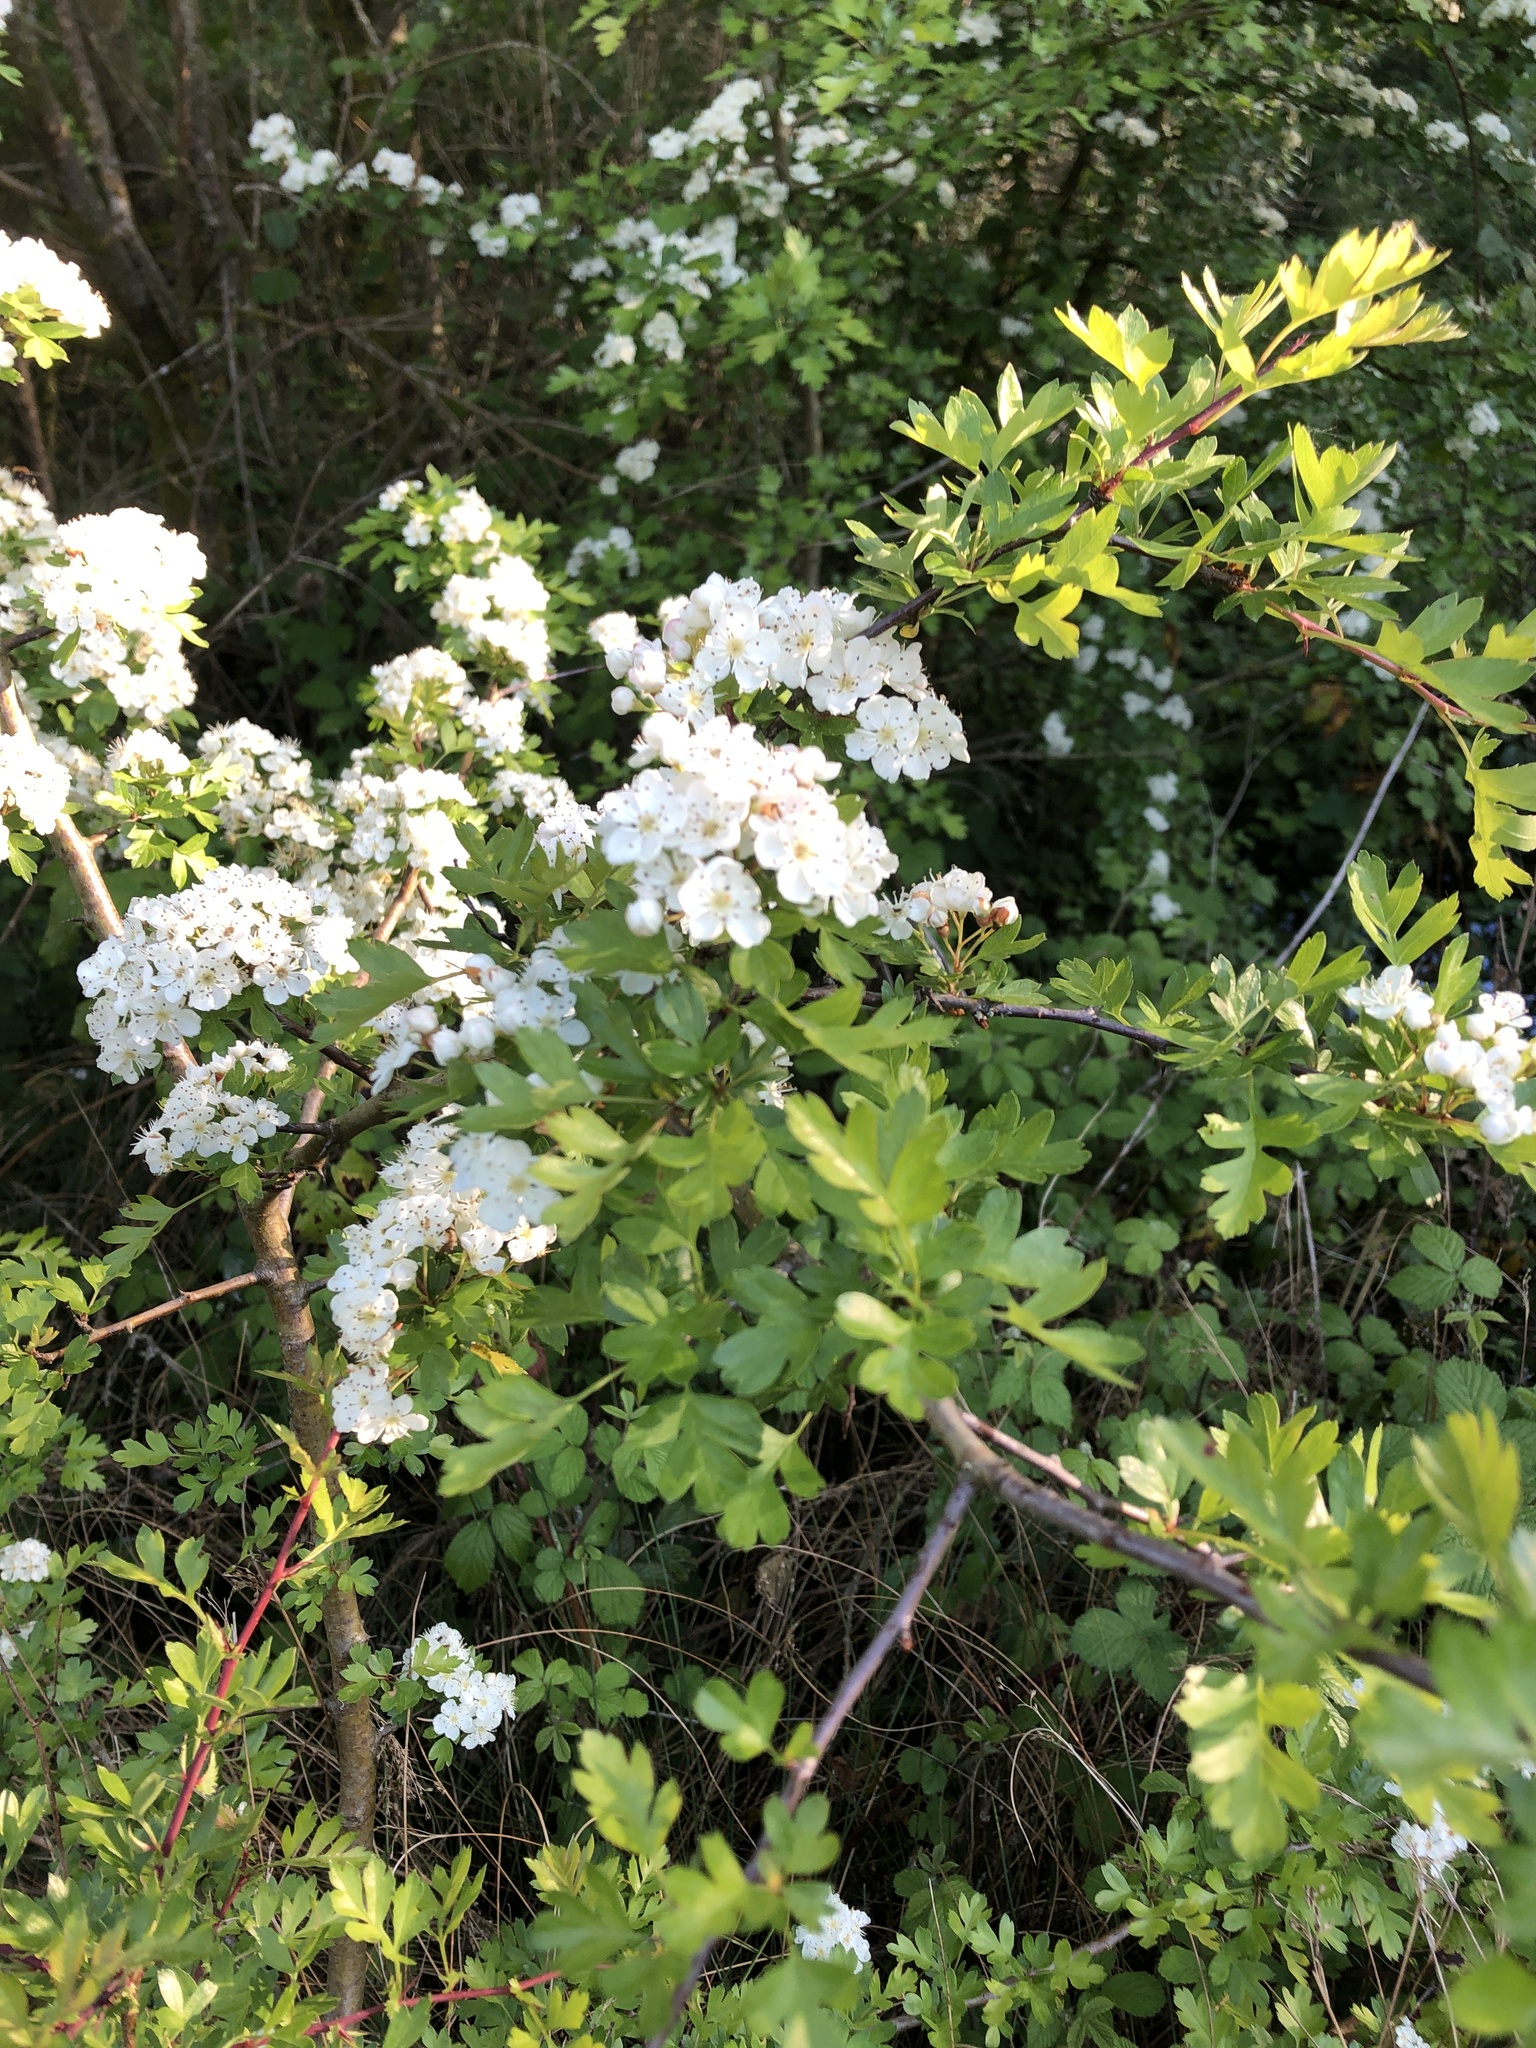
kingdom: Plantae
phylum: Tracheophyta
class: Magnoliopsida
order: Rosales
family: Rosaceae
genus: Crataegus
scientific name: Crataegus monogyna
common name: Hawthorn
